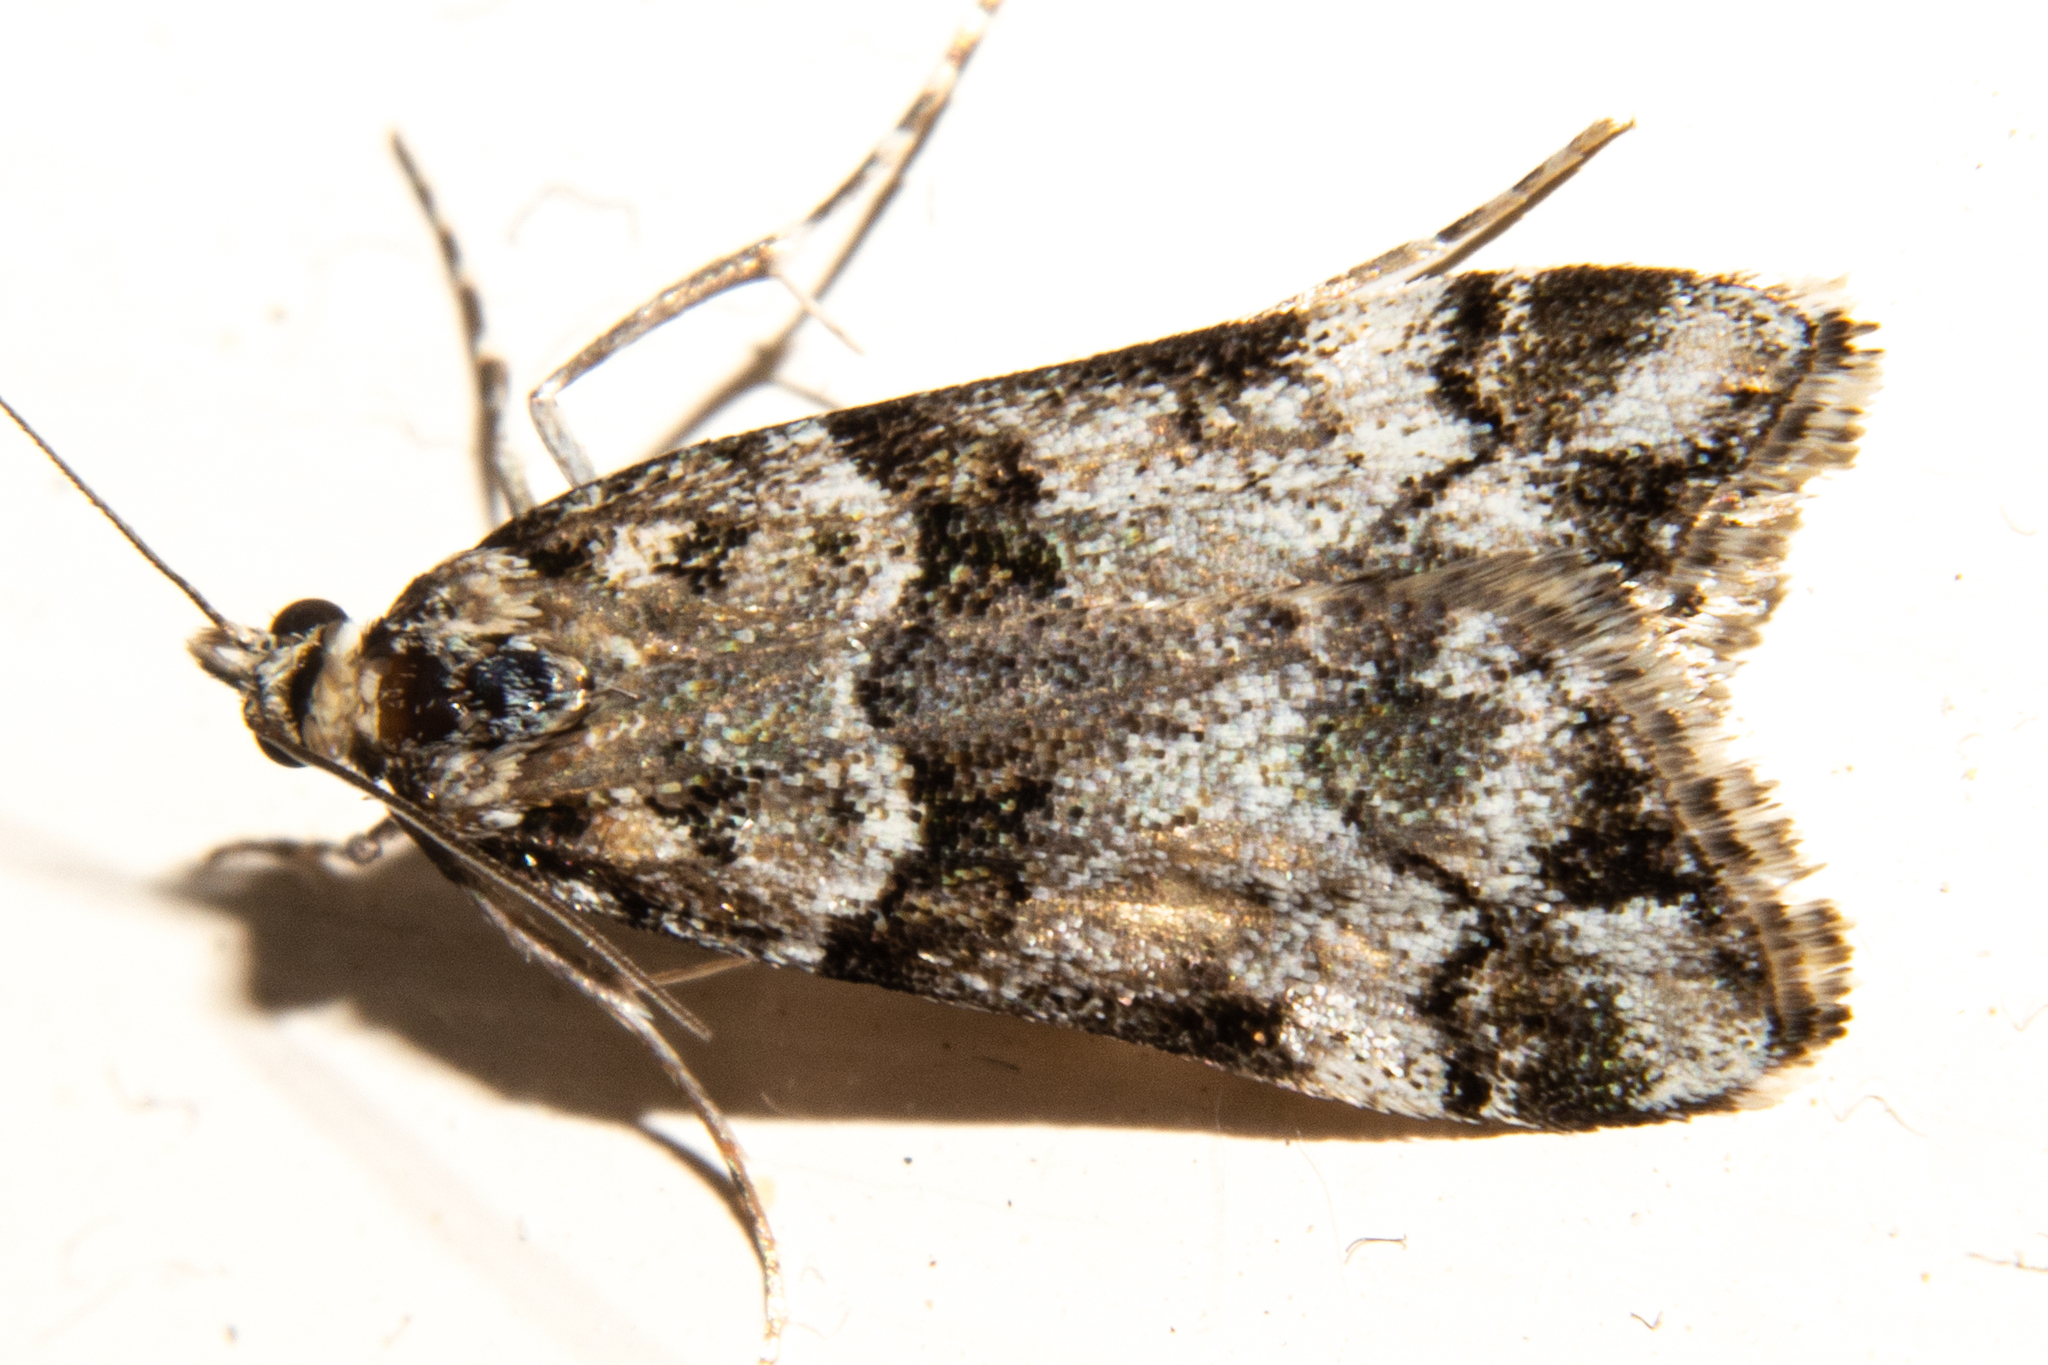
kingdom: Animalia
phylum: Arthropoda
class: Insecta
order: Lepidoptera
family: Crambidae
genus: Eudonia
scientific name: Eudonia torodes
